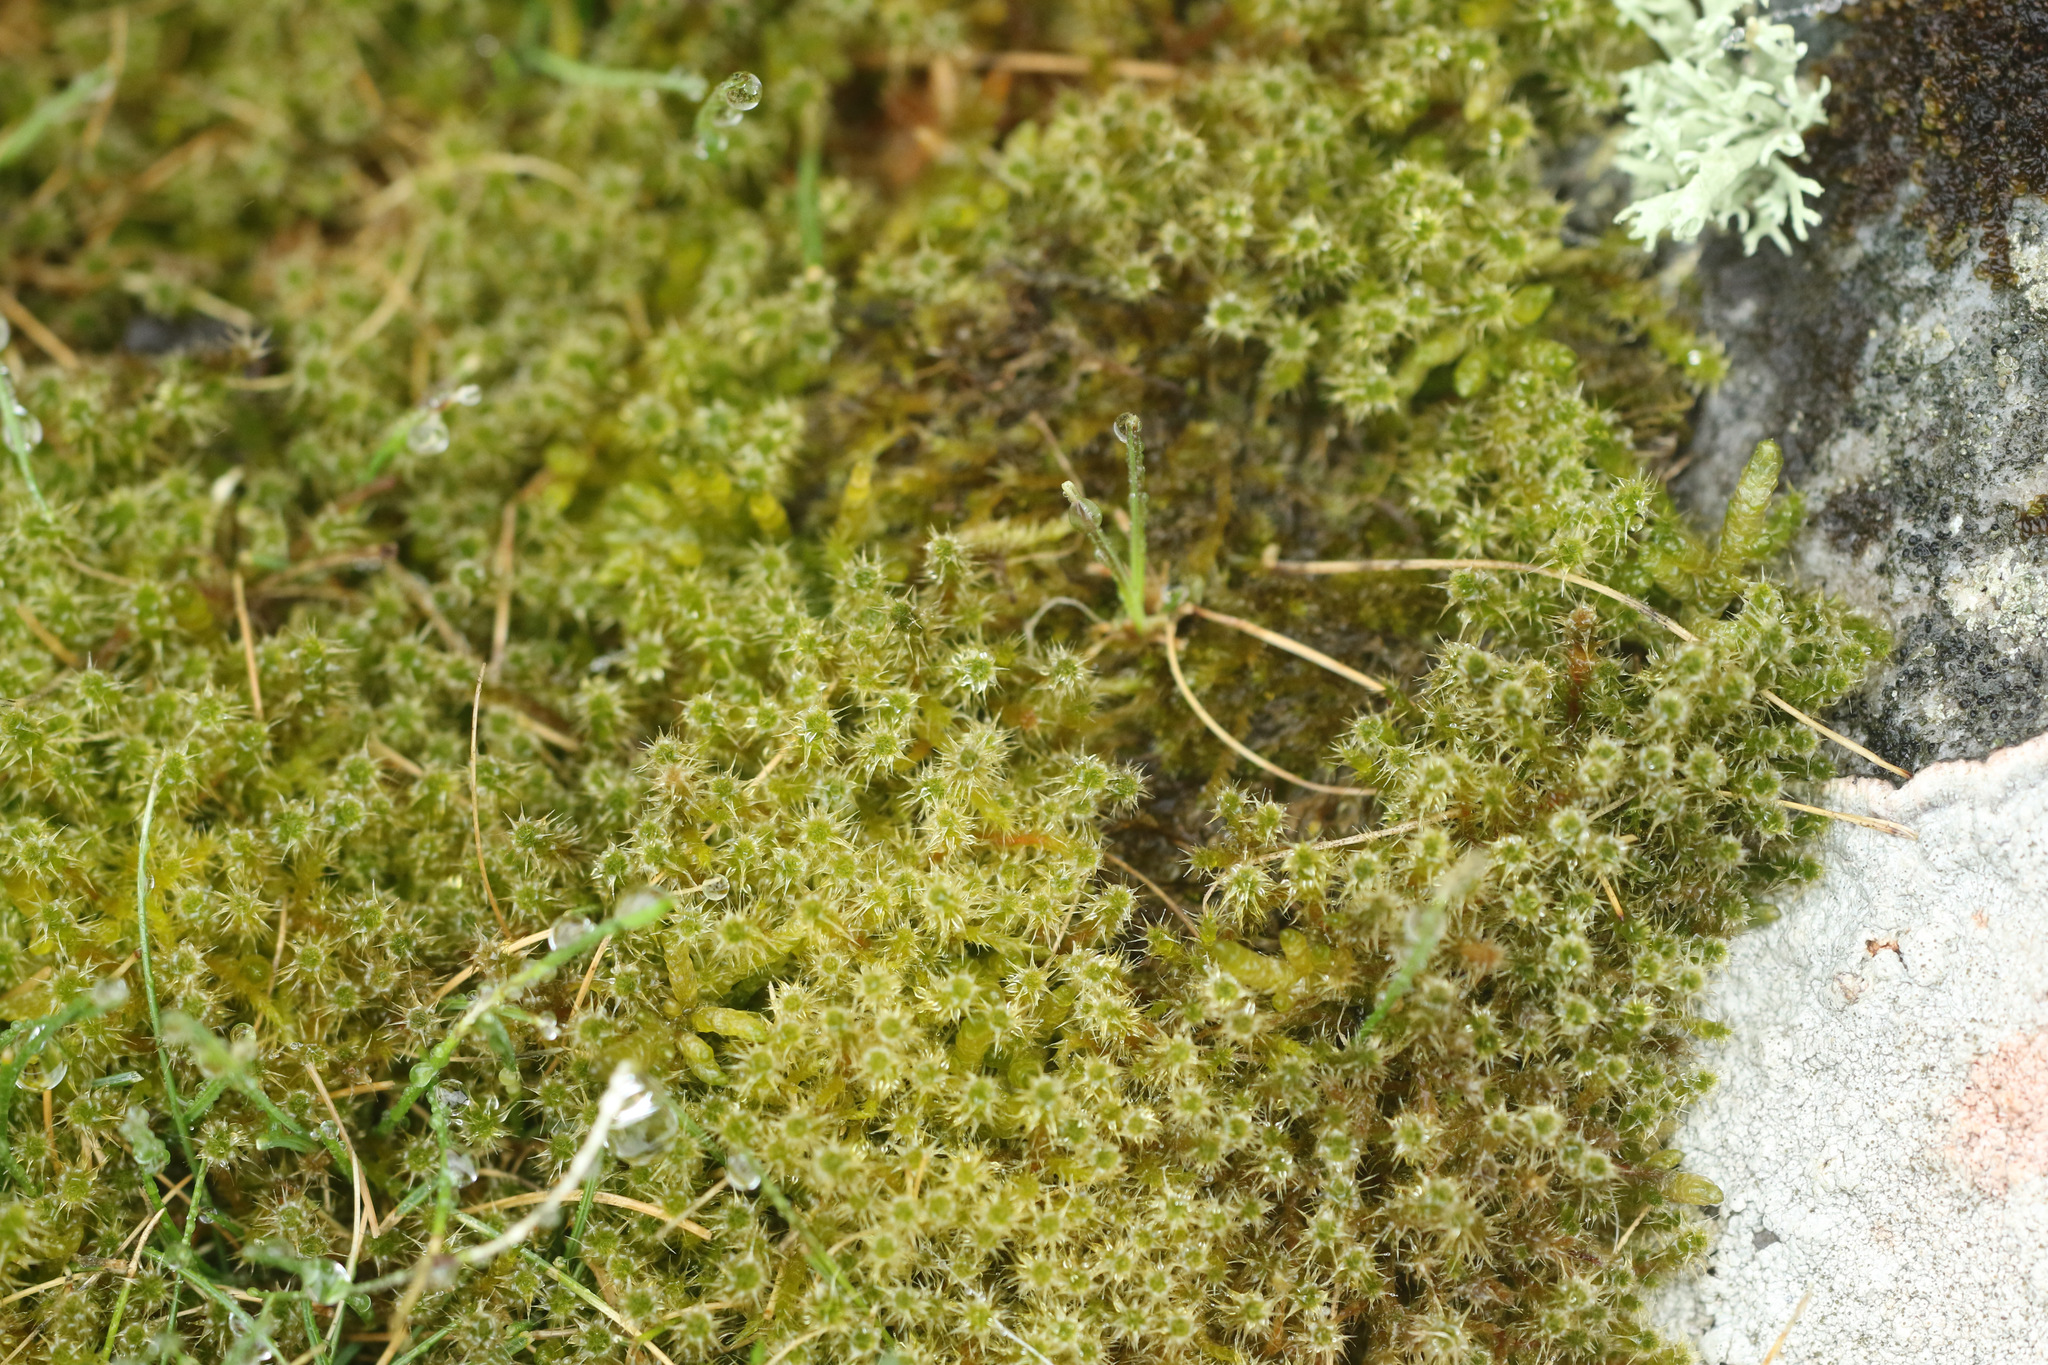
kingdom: Plantae
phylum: Bryophyta
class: Bryopsida
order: Hypnales
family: Hylocomiaceae
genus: Rhytidiadelphus
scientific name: Rhytidiadelphus squarrosus
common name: Springy turf-moss
